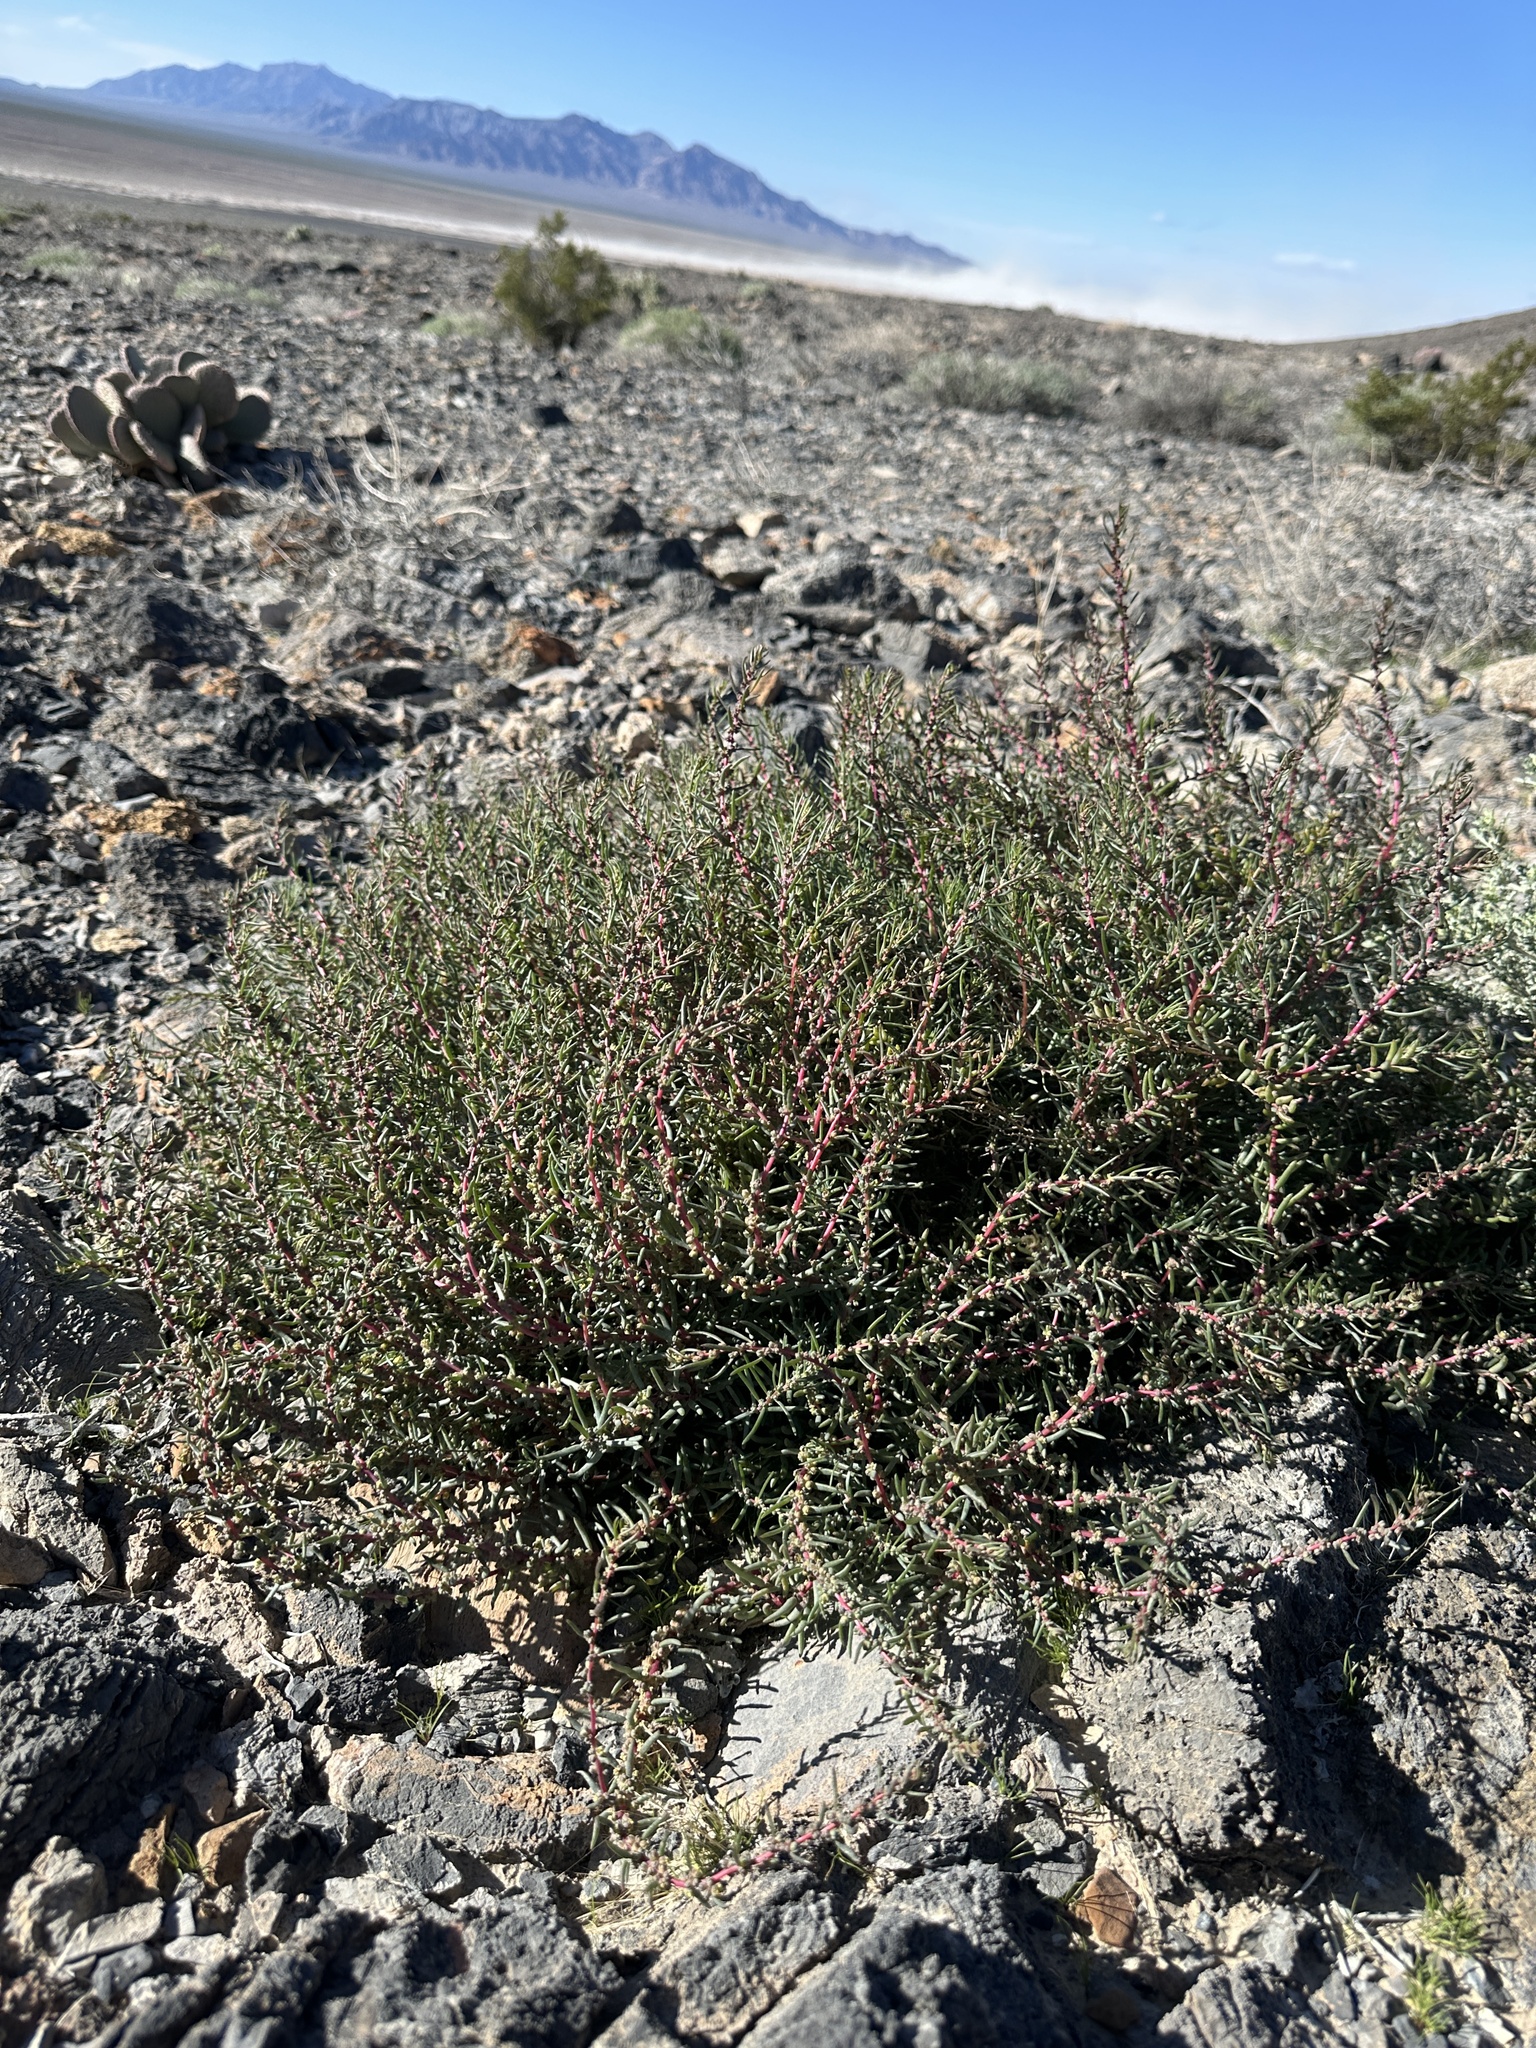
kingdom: Plantae
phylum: Tracheophyta
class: Magnoliopsida
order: Caryophyllales
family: Amaranthaceae
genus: Suaeda
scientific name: Suaeda nigra
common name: Bush seepweed
